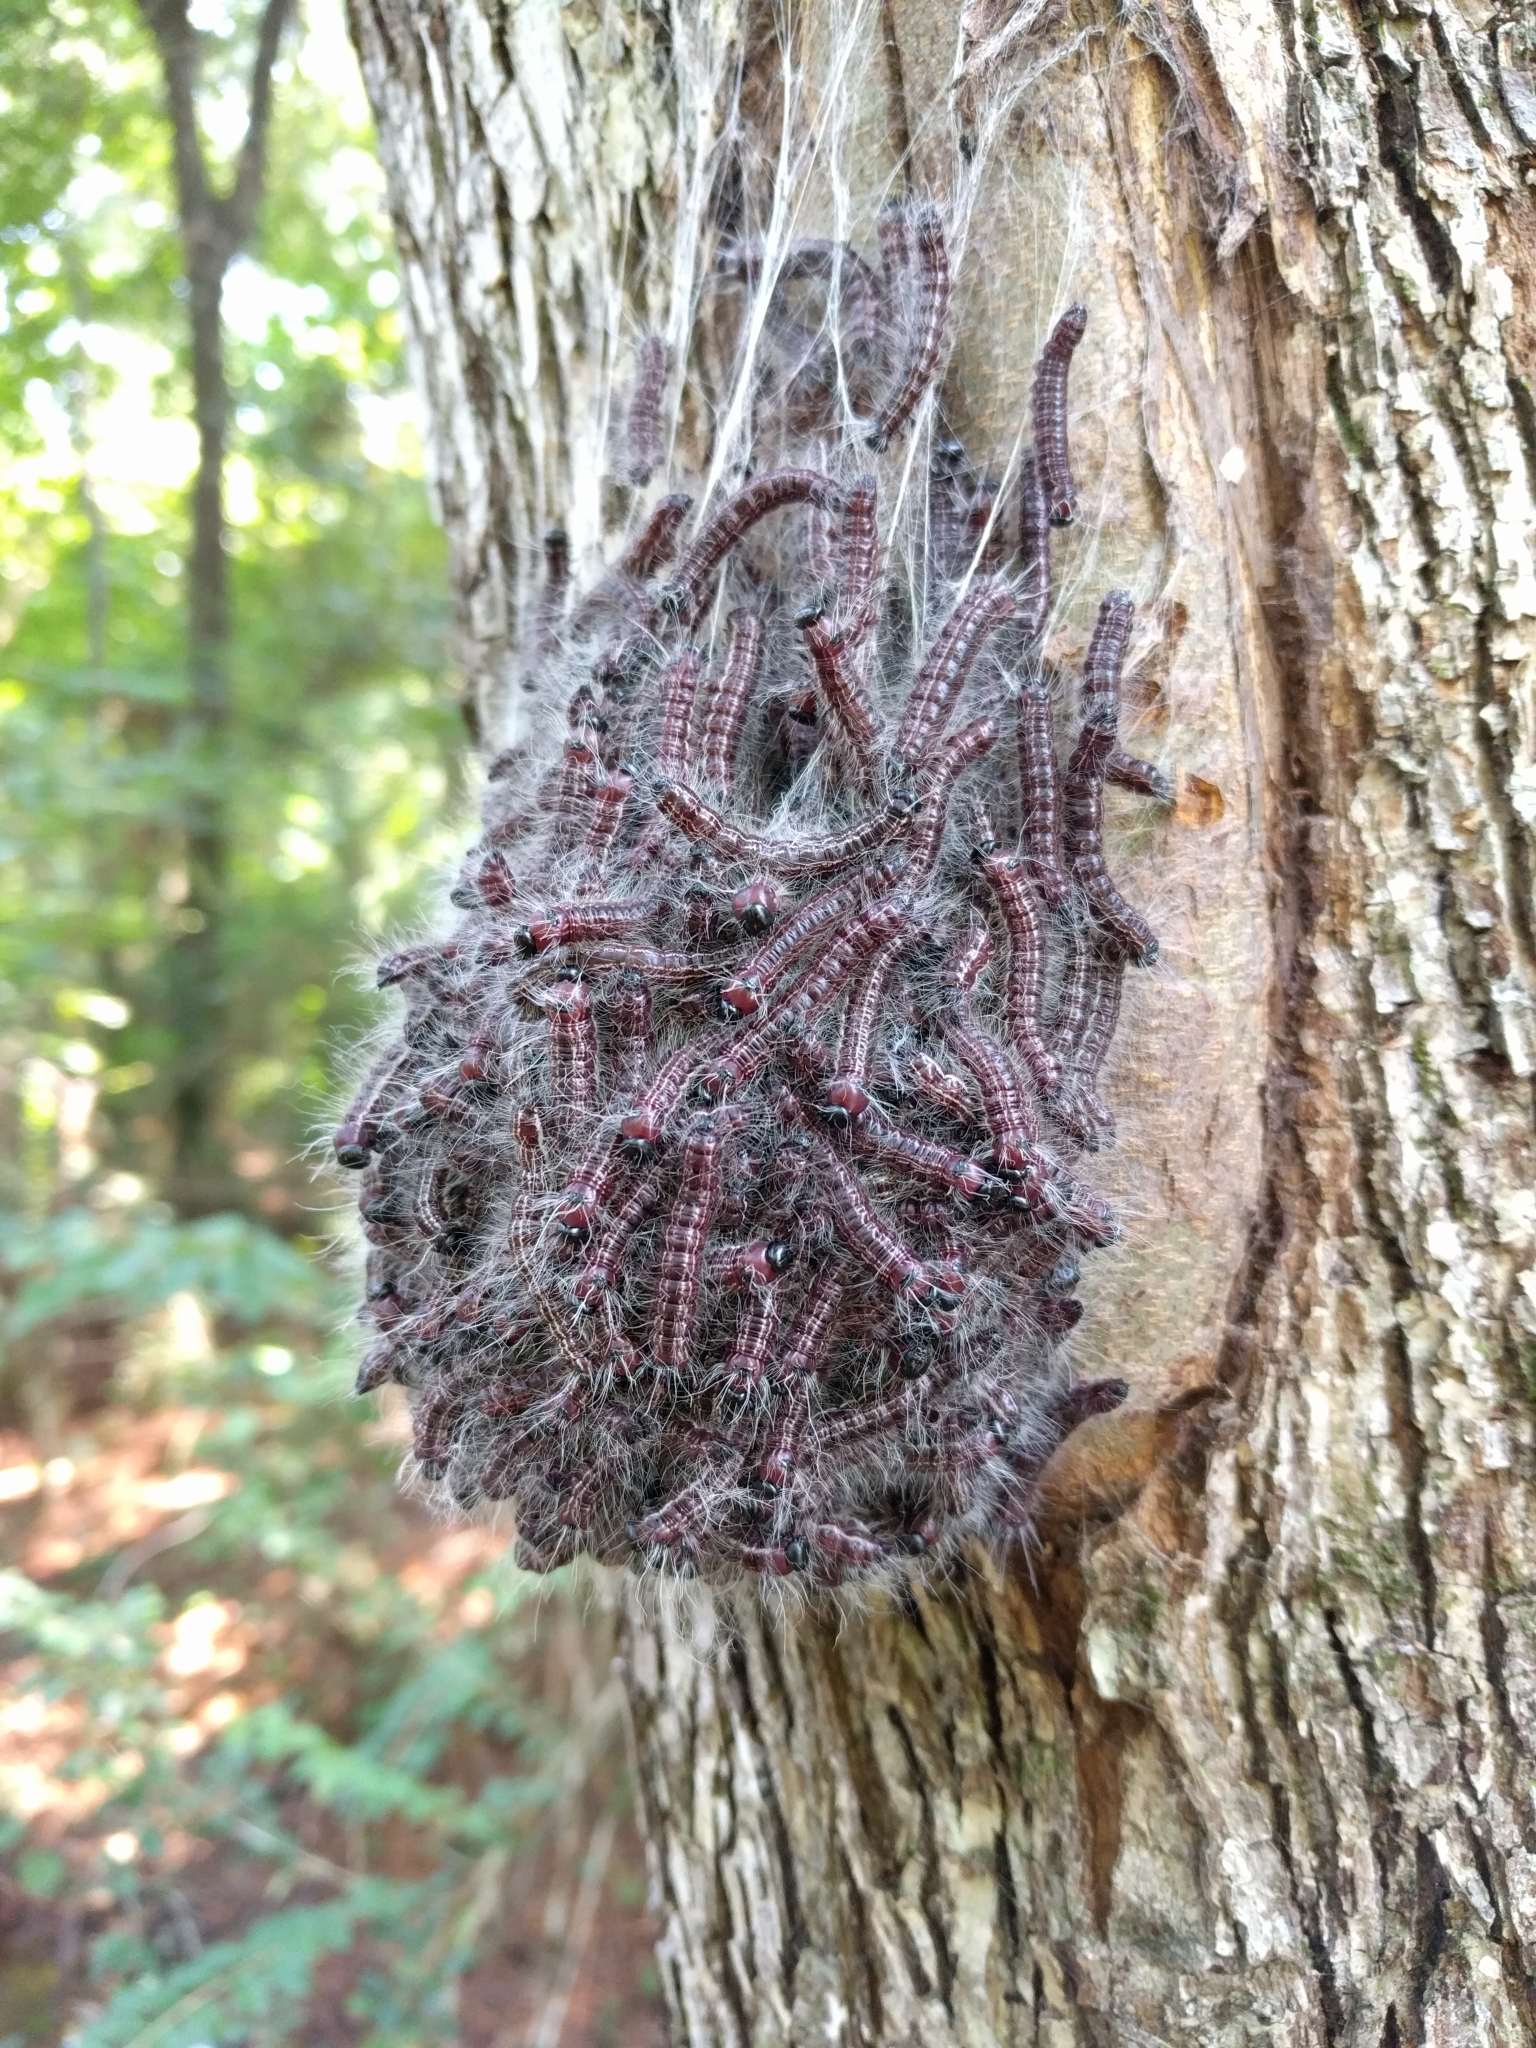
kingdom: Animalia
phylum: Arthropoda
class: Insecta
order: Lepidoptera
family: Notodontidae
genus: Datana
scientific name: Datana integerrima
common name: Walnut caterpillar
